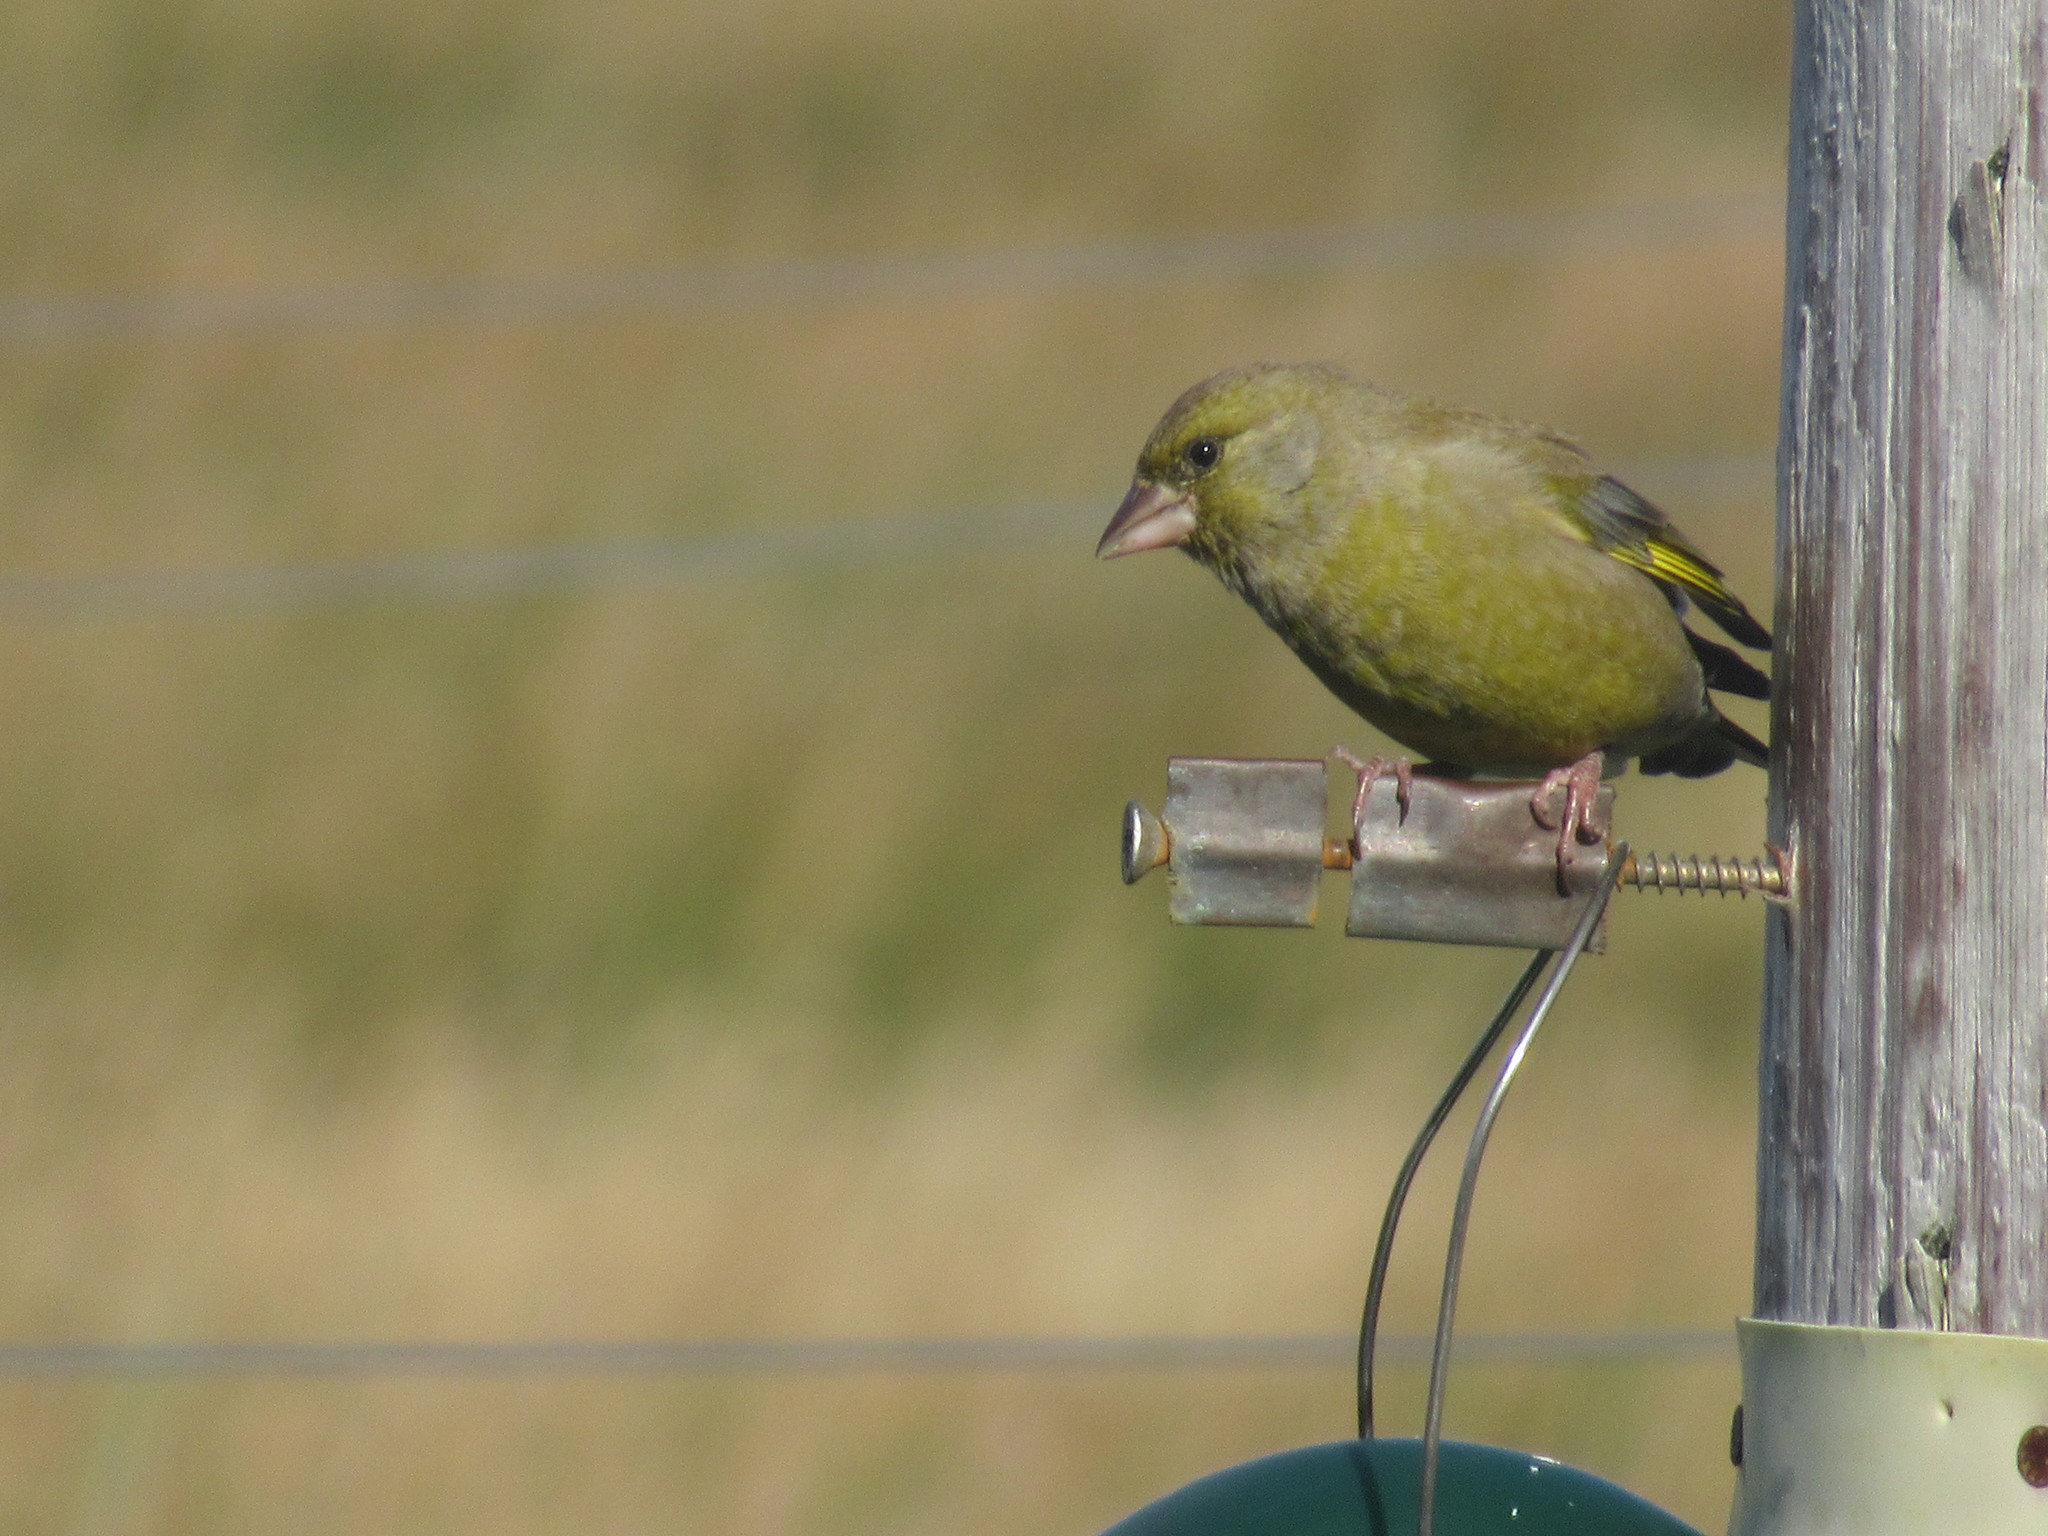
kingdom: Plantae
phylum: Tracheophyta
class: Liliopsida
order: Poales
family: Poaceae
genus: Chloris
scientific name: Chloris chloris
